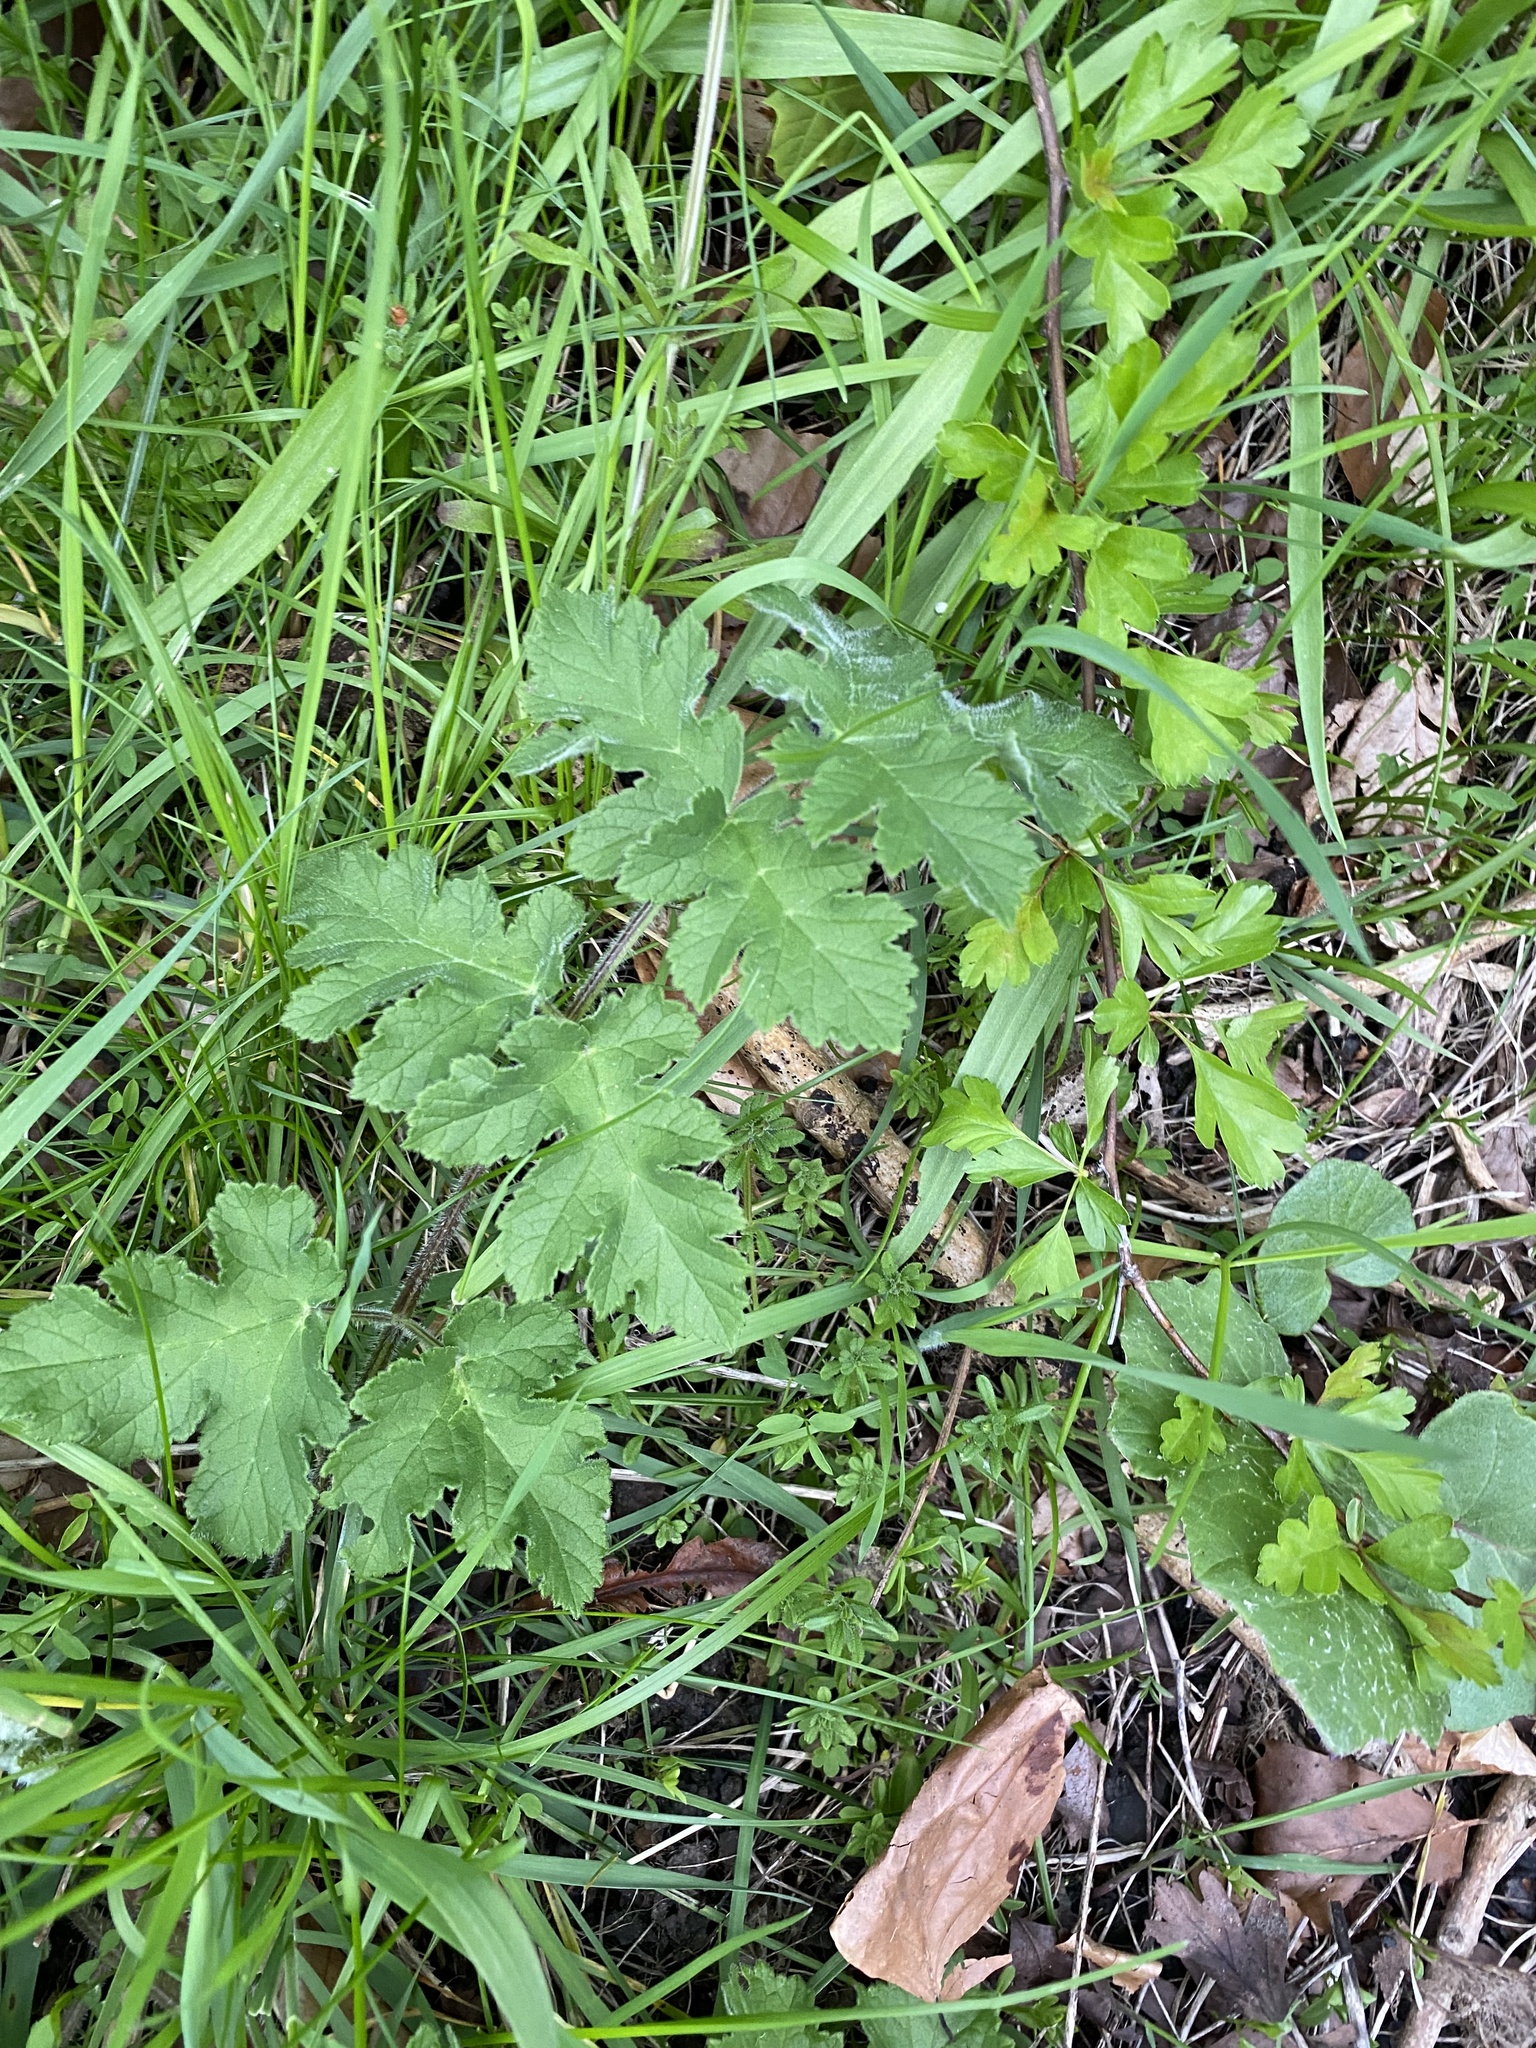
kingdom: Plantae
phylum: Tracheophyta
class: Magnoliopsida
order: Apiales
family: Apiaceae
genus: Heracleum
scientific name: Heracleum sphondylium
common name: Hogweed
